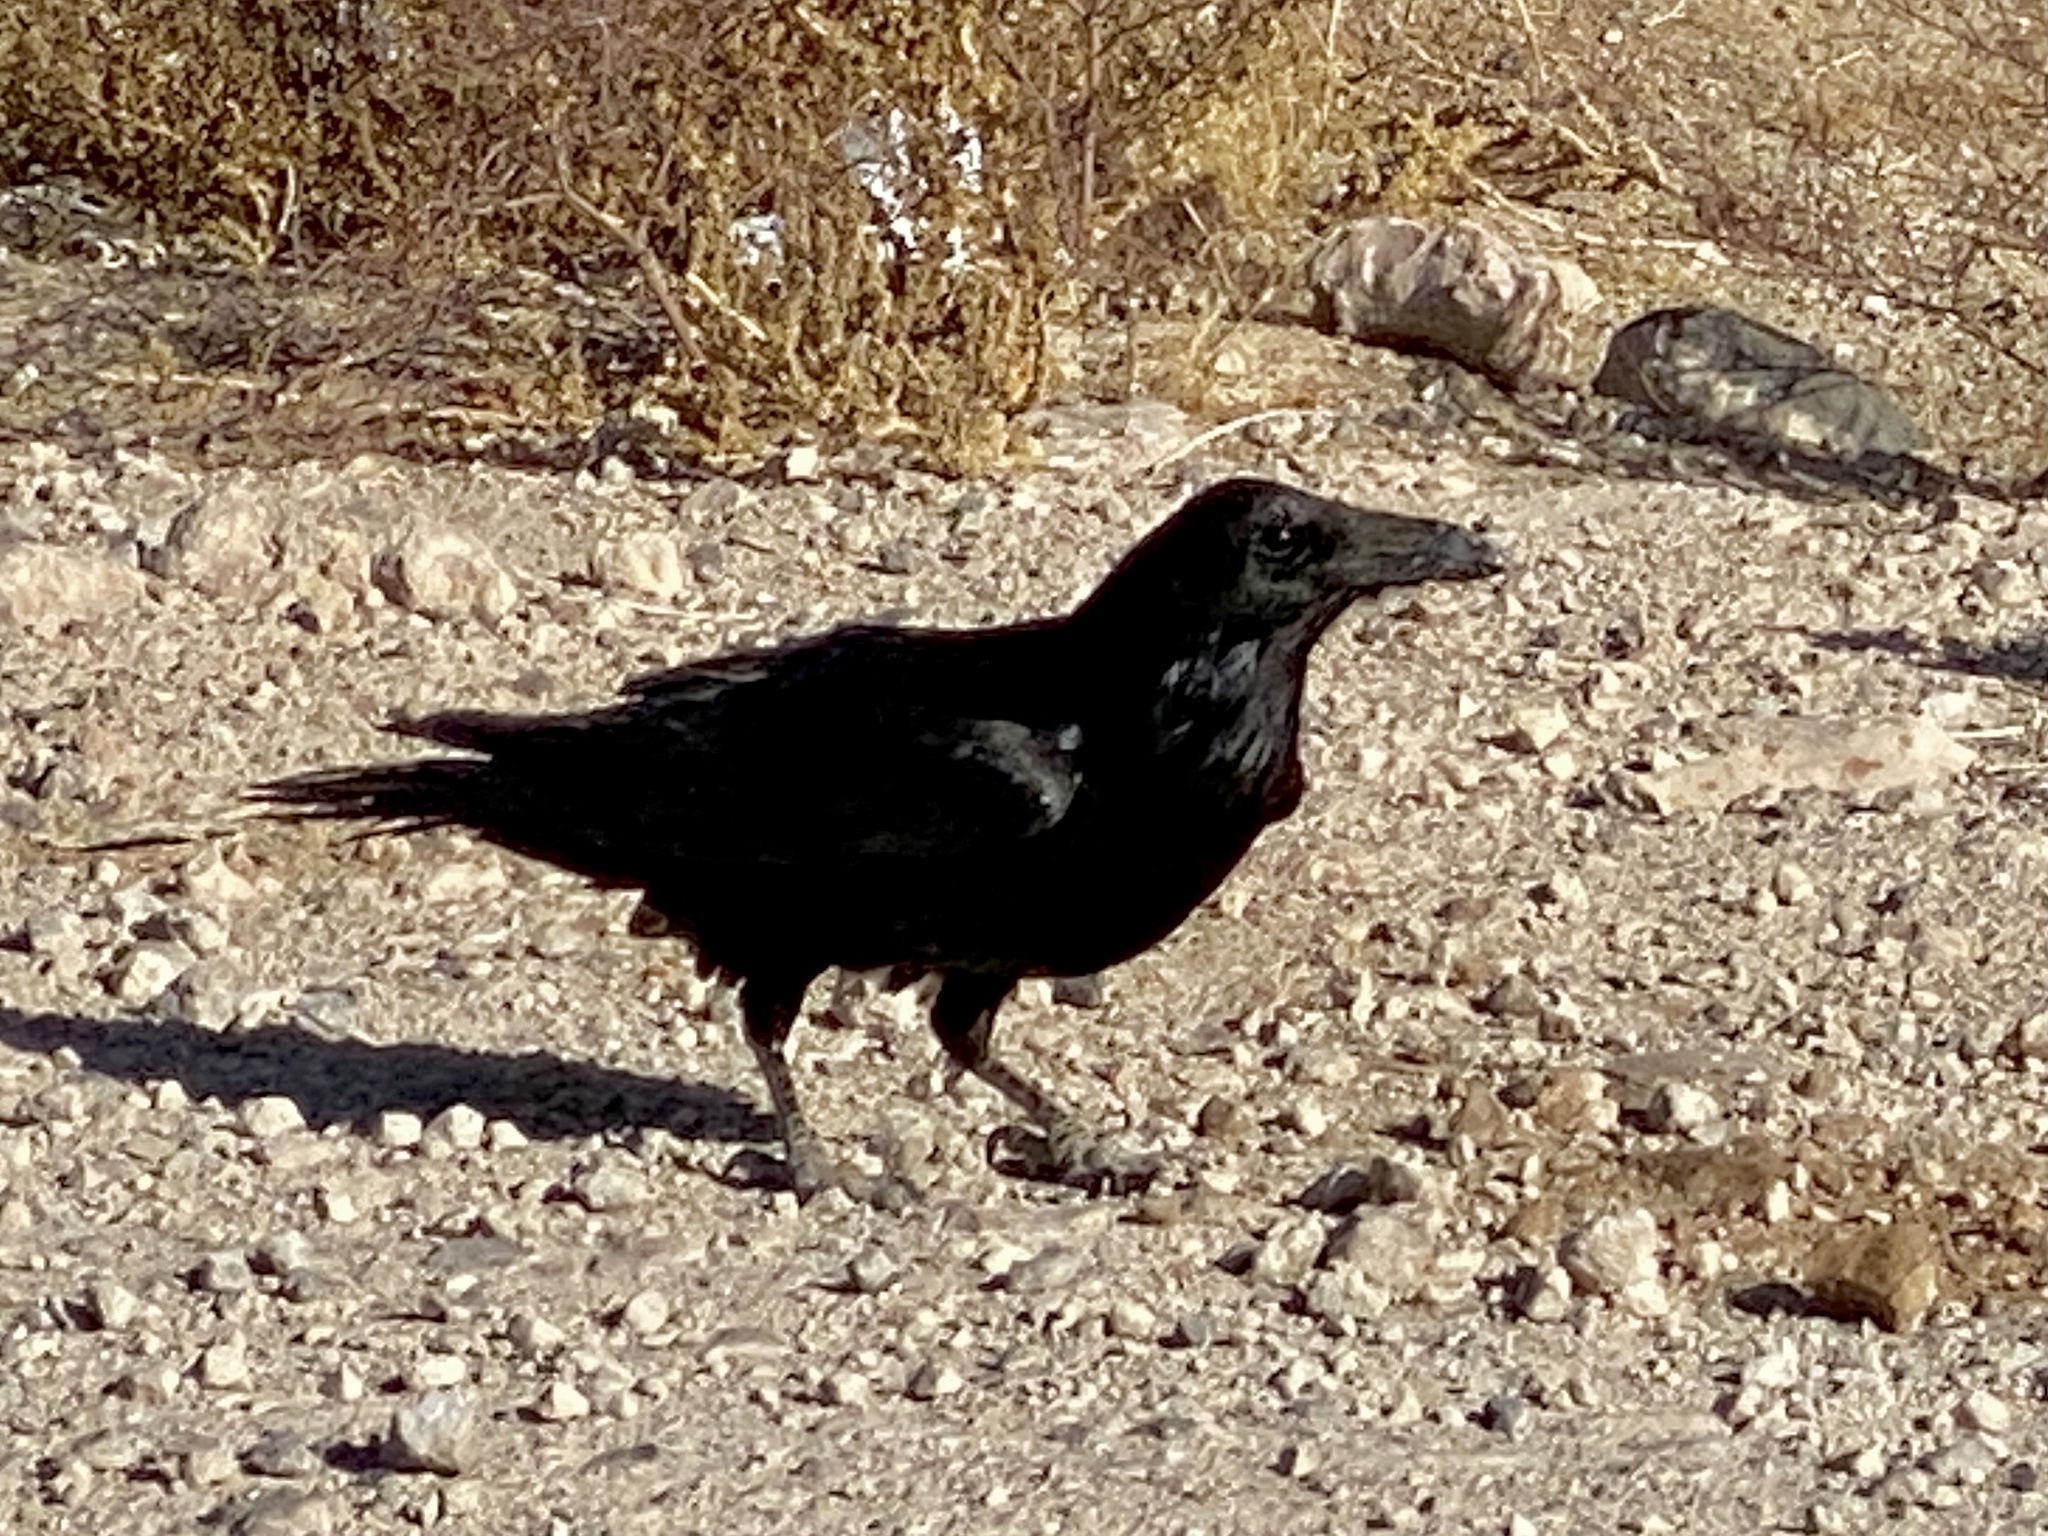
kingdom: Animalia
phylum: Chordata
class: Aves
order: Passeriformes
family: Corvidae
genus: Corvus
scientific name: Corvus corax
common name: Common raven
